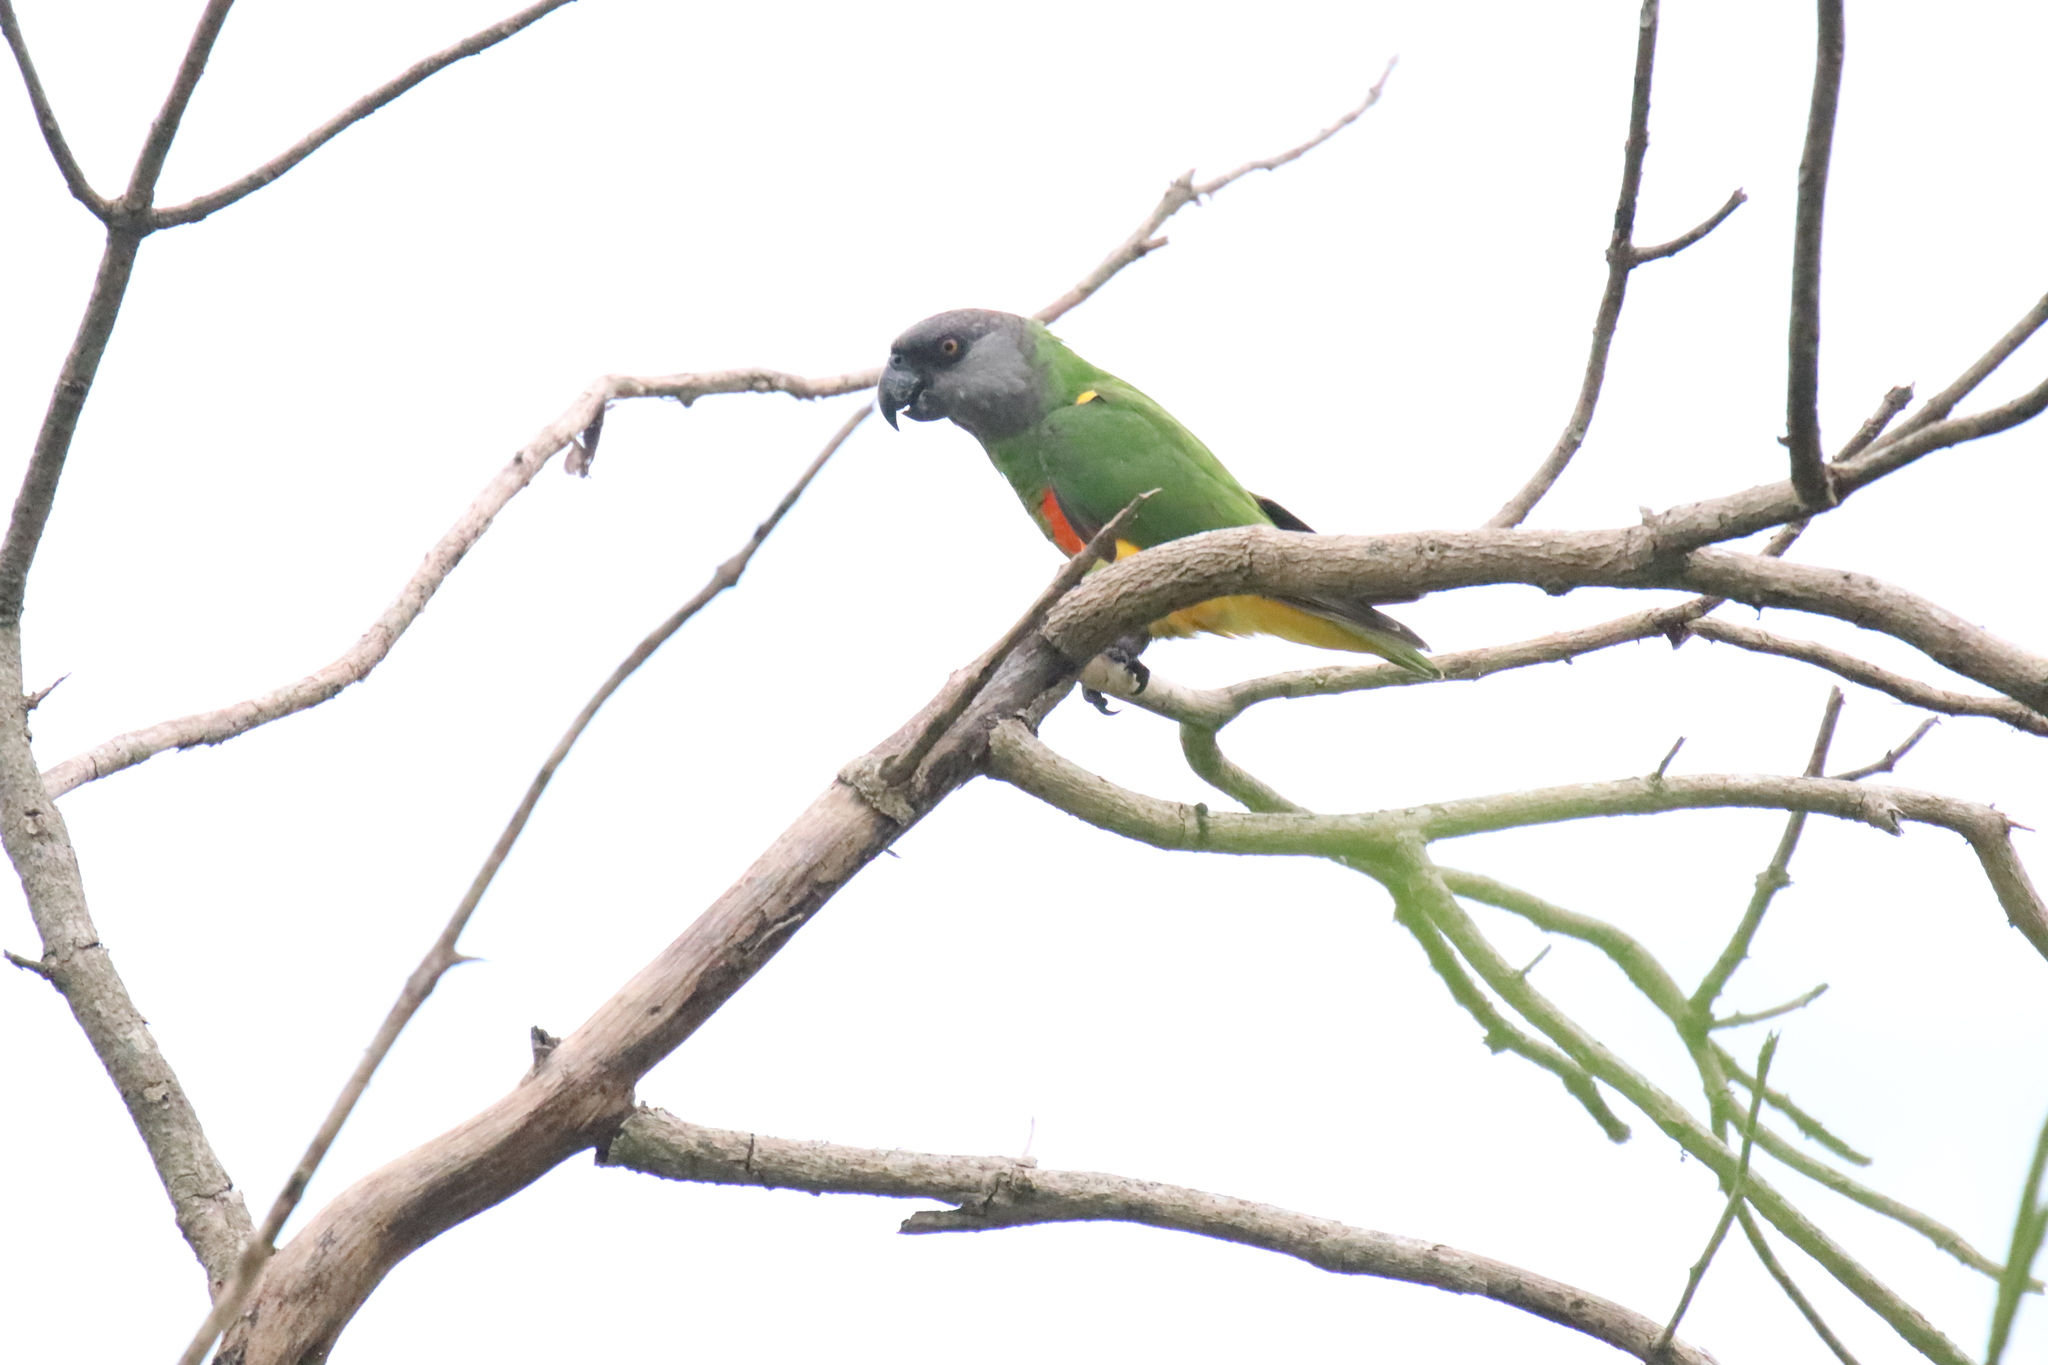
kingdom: Animalia
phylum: Chordata
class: Aves
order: Psittaciformes
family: Psittacidae
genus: Poicephalus
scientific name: Poicephalus senegalus
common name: Senegal parrot
